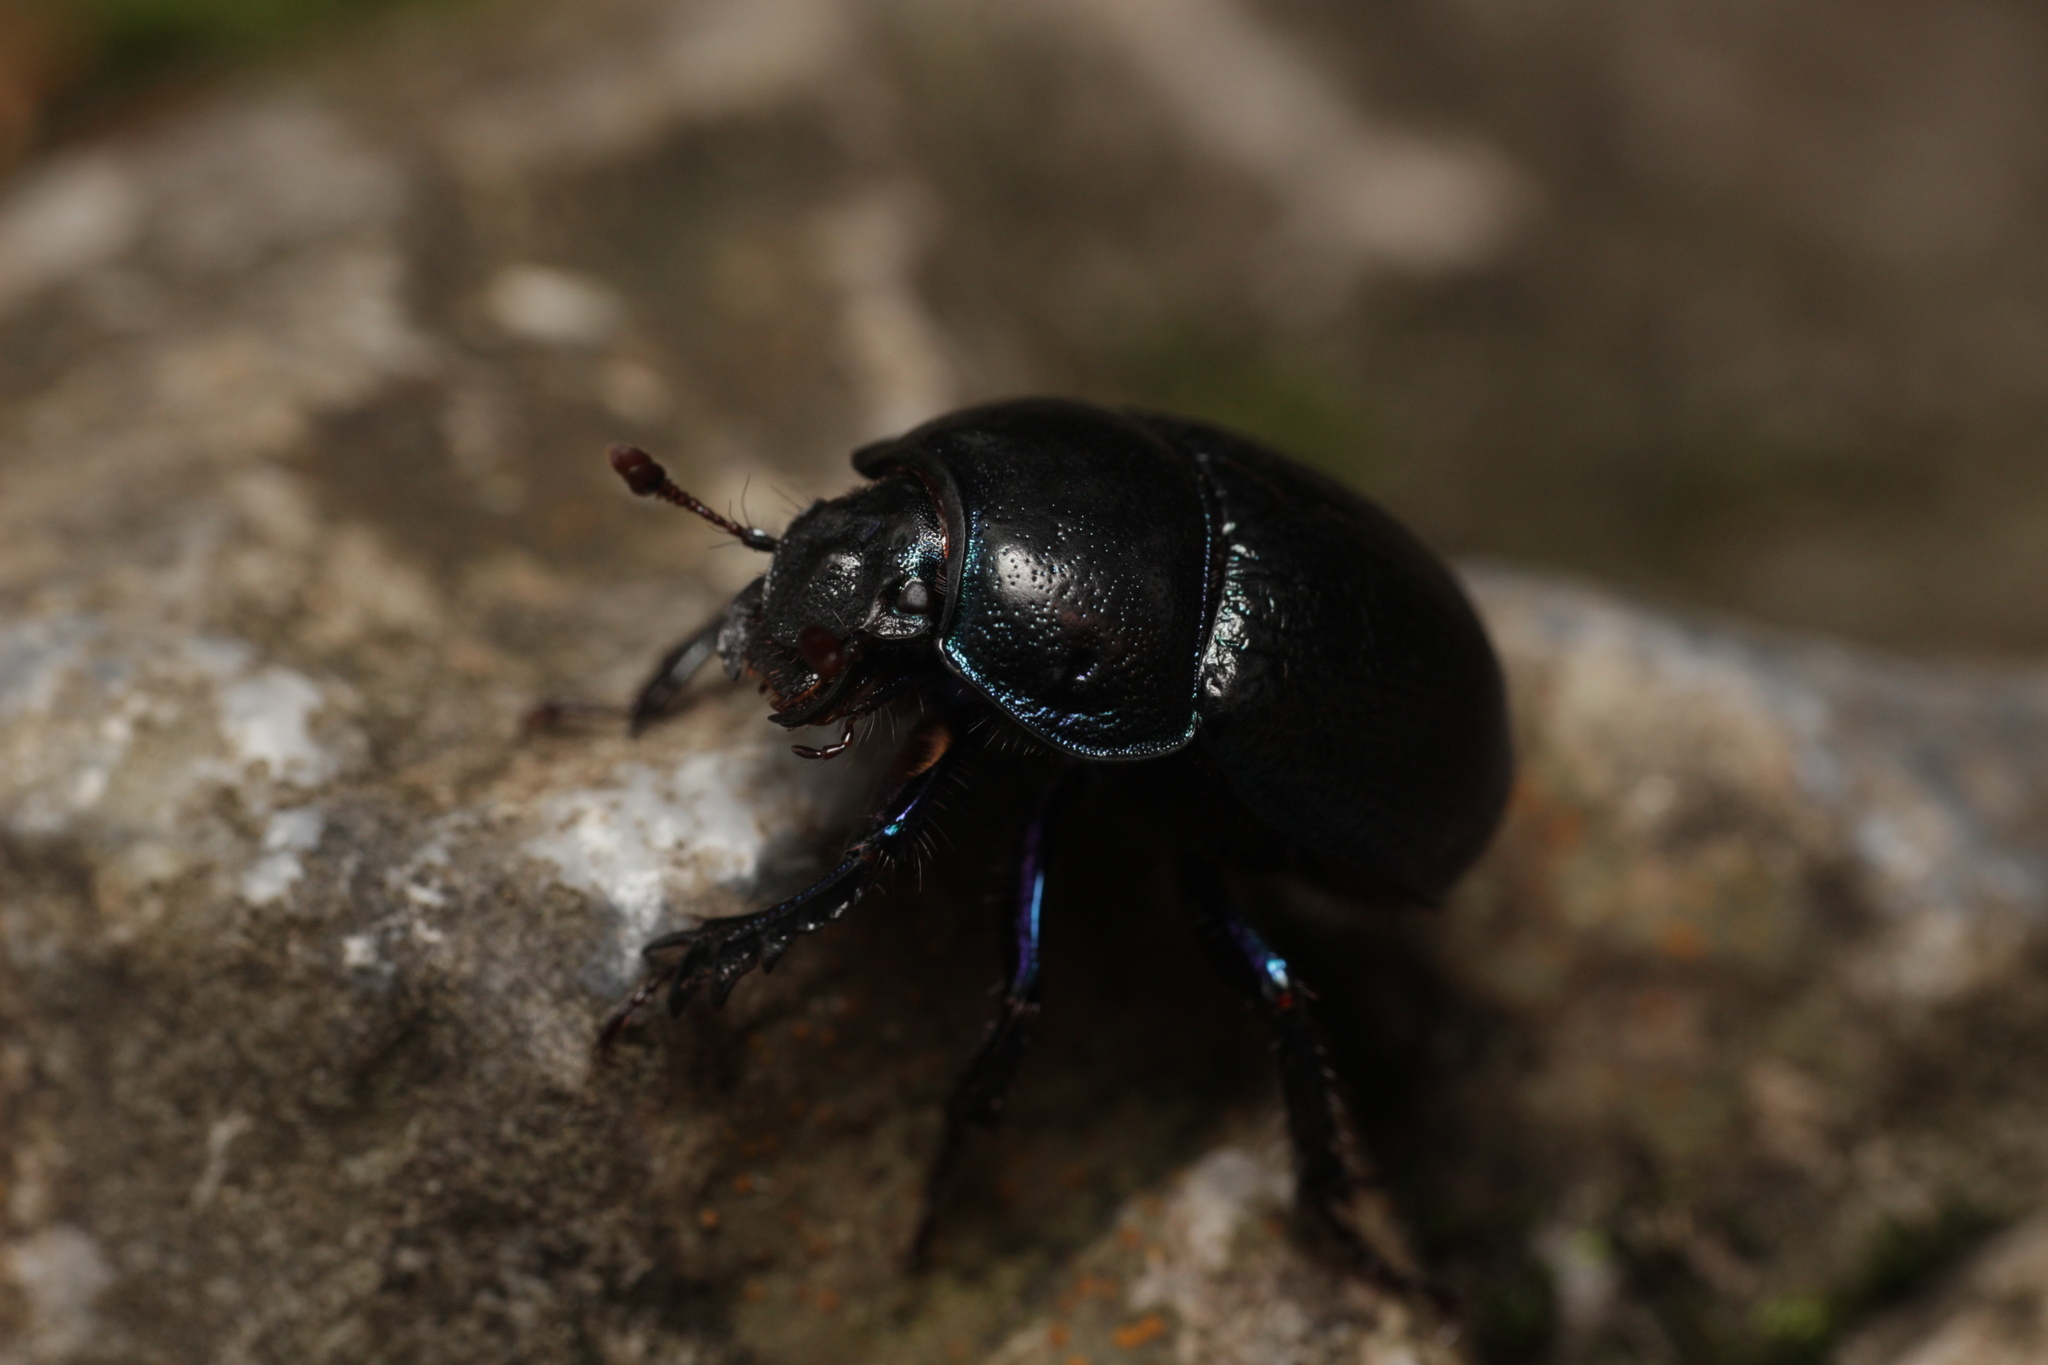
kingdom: Animalia
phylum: Arthropoda
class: Insecta
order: Coleoptera
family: Geotrupidae
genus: Anoplotrupes
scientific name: Anoplotrupes stercorosus
